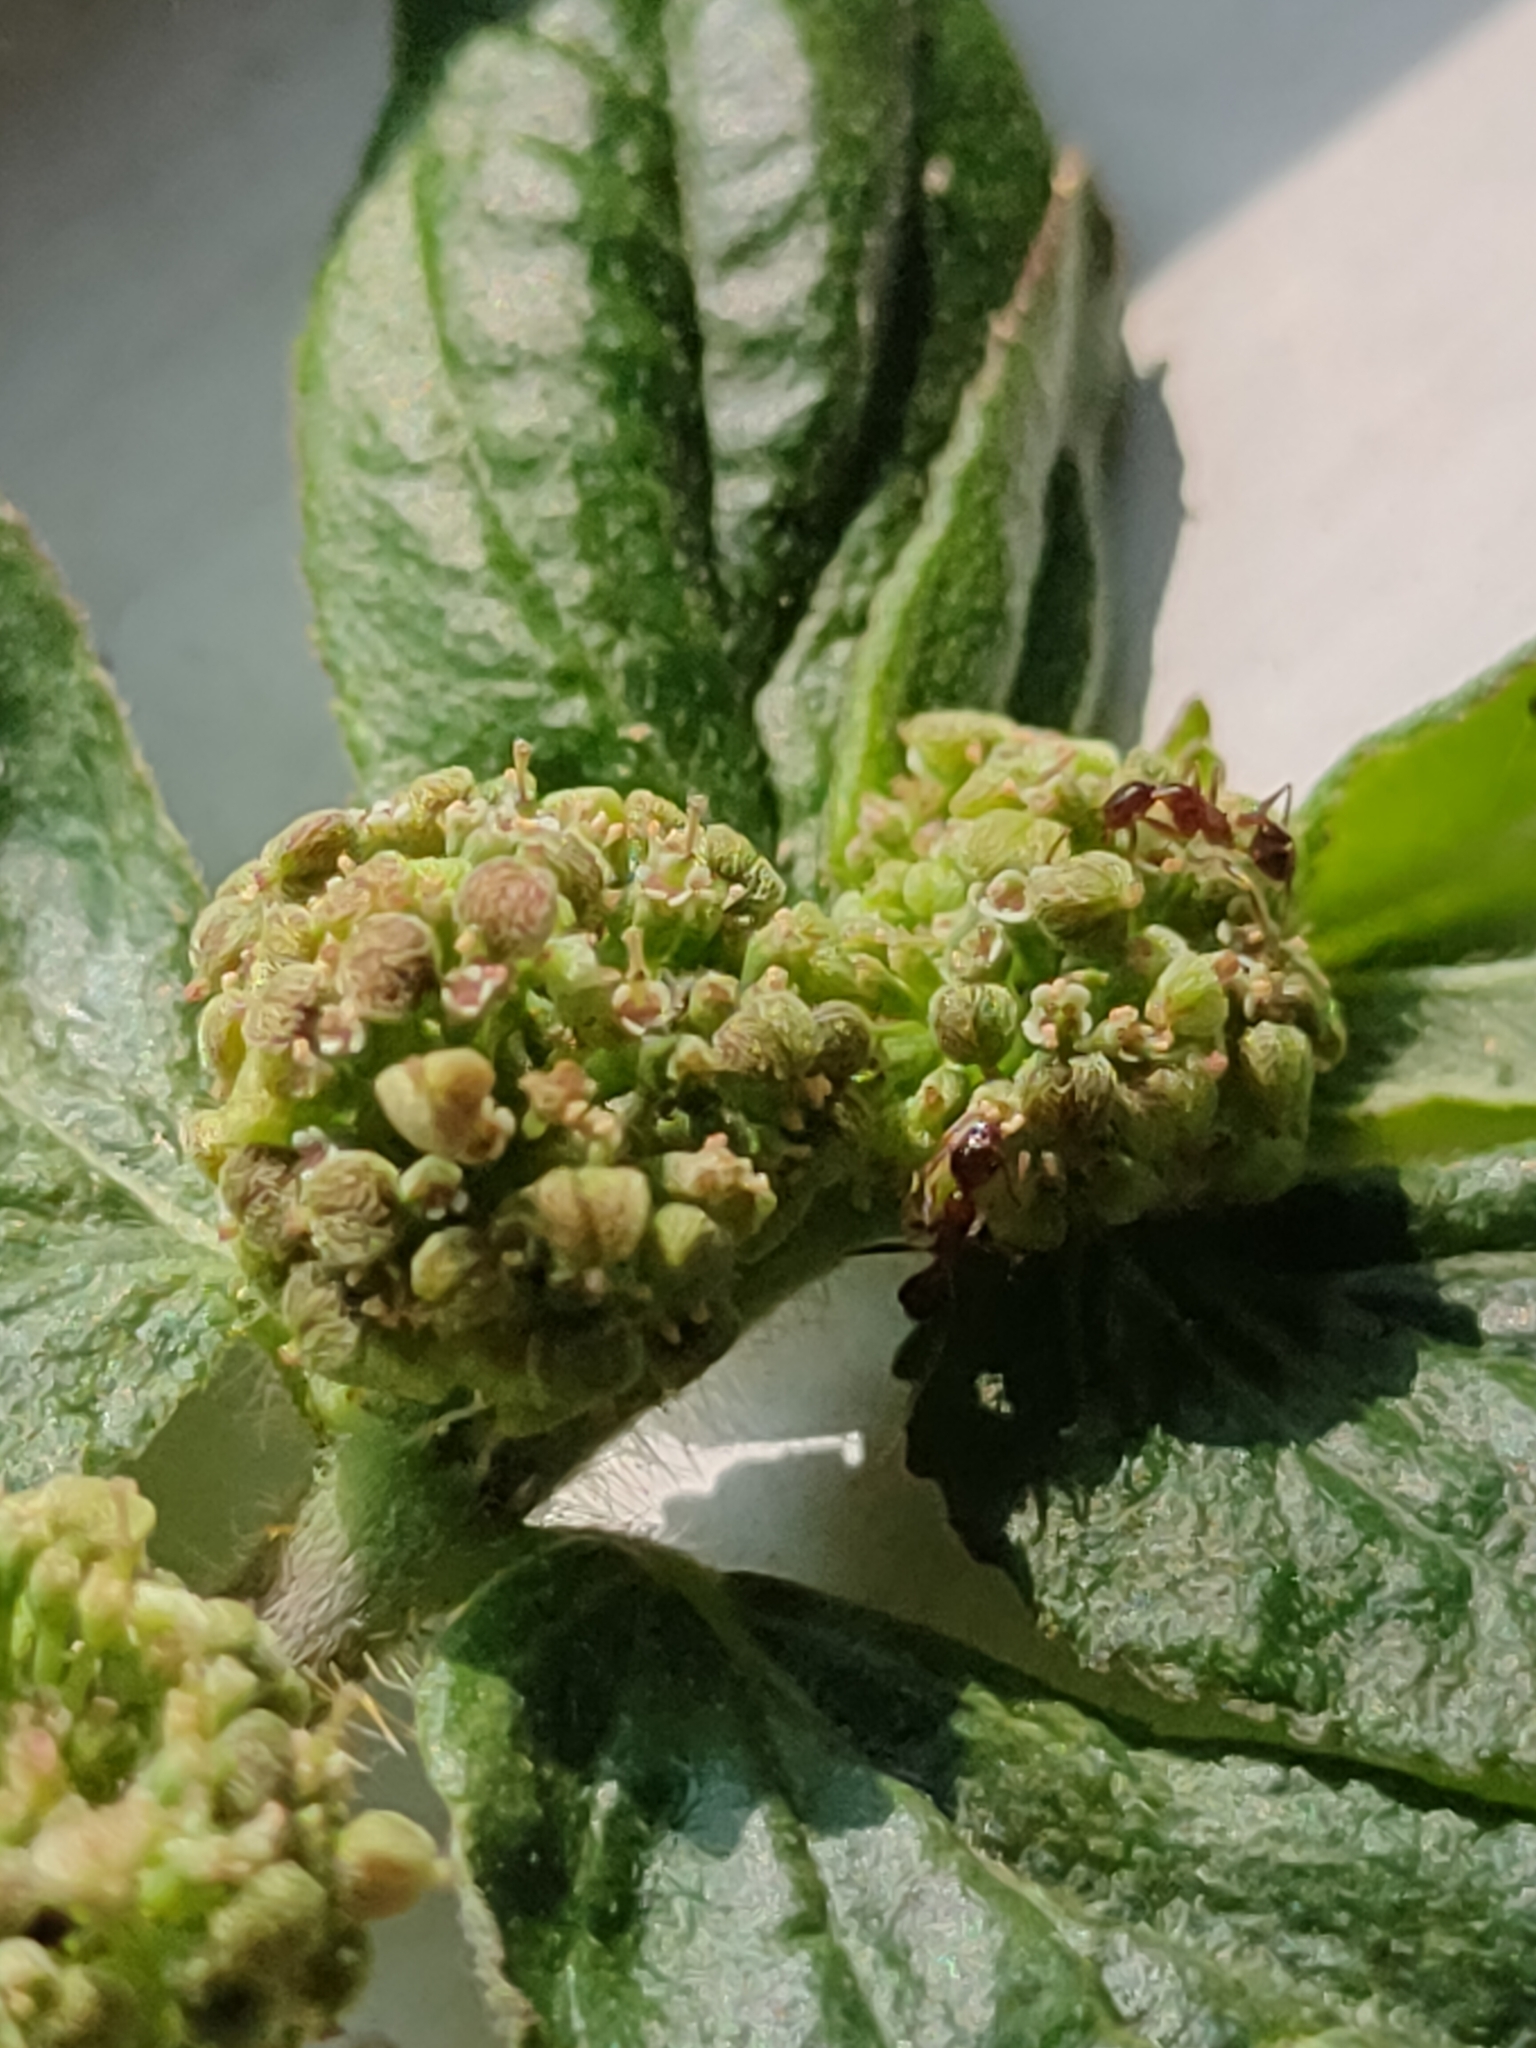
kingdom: Plantae
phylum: Tracheophyta
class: Magnoliopsida
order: Malpighiales
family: Euphorbiaceae
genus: Euphorbia
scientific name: Euphorbia hirta
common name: Pillpod sandmat
